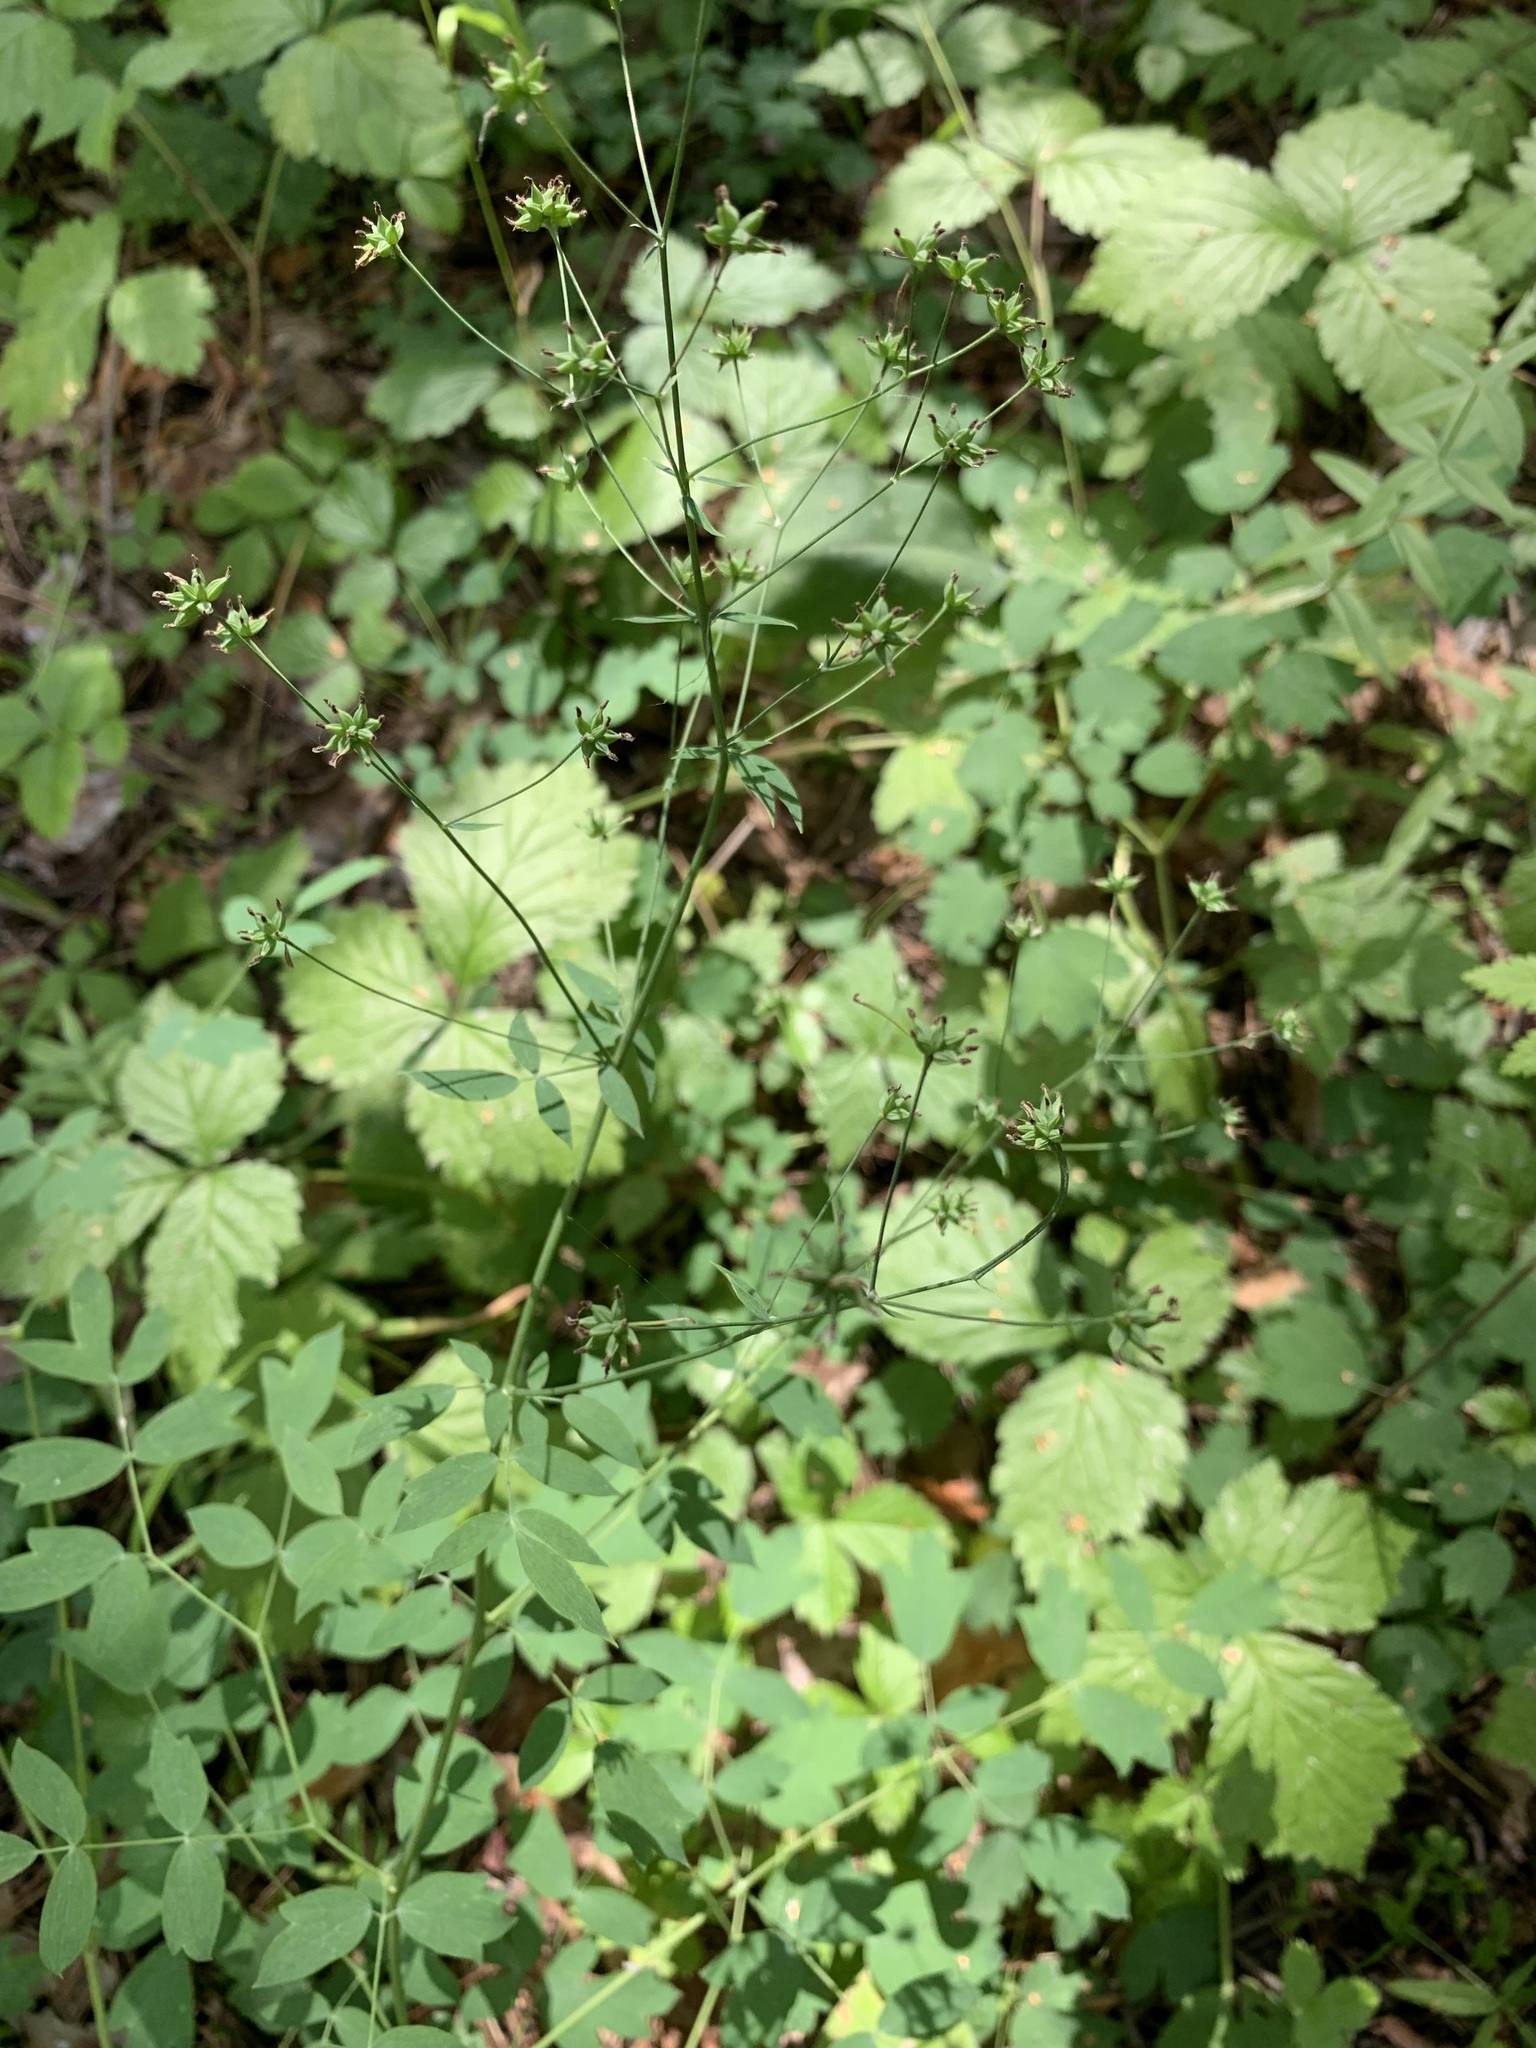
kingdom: Plantae
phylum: Tracheophyta
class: Magnoliopsida
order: Ranunculales
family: Ranunculaceae
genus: Thalictrum
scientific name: Thalictrum minus
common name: Lesser meadow-rue
